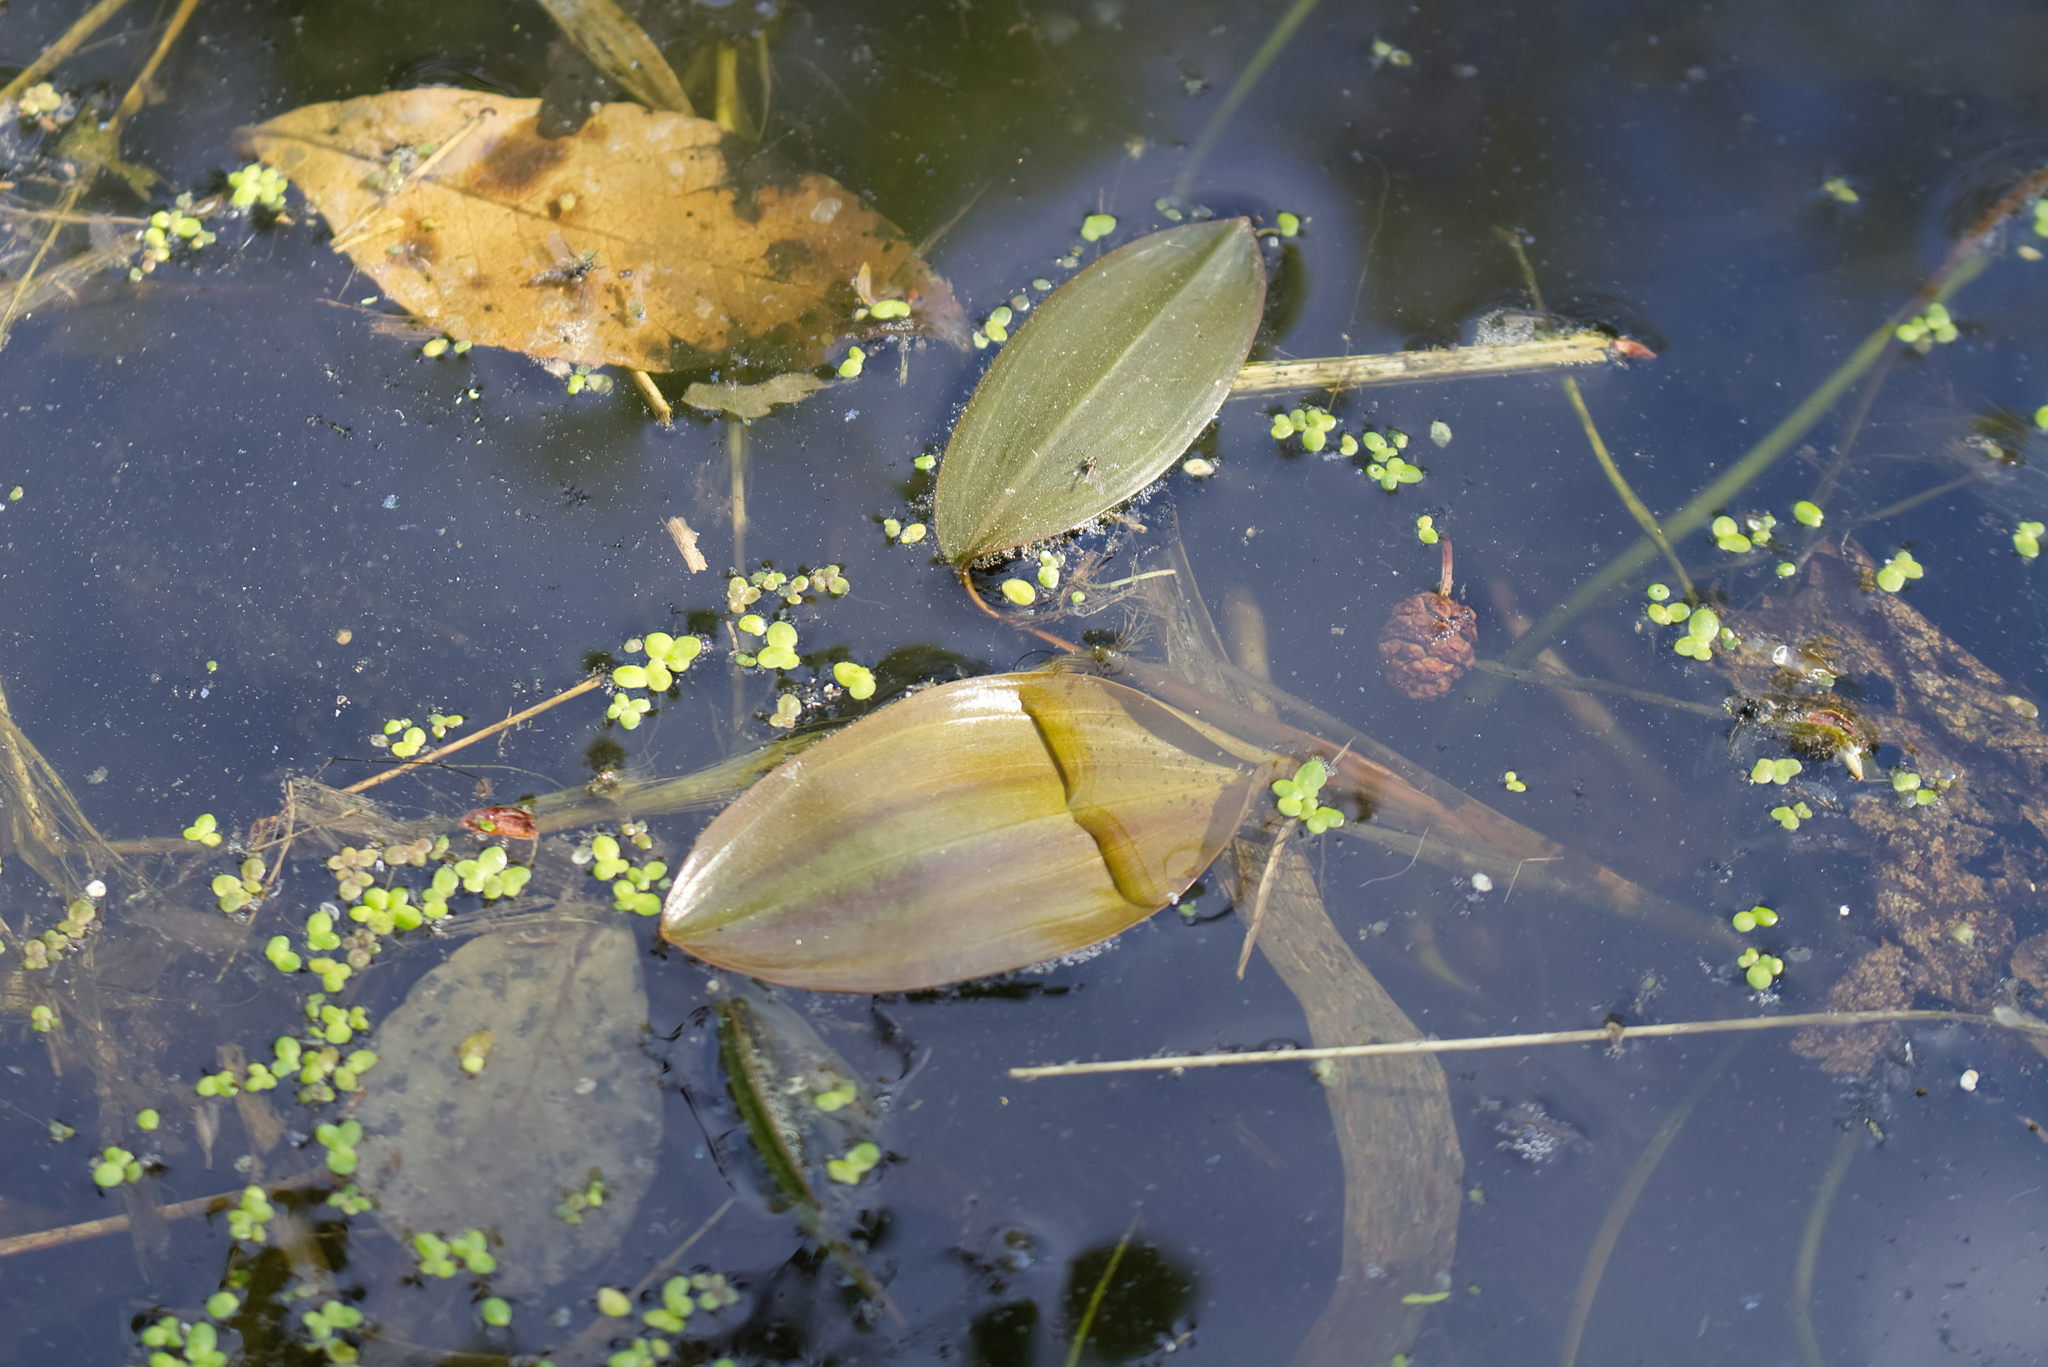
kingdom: Plantae
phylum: Tracheophyta
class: Liliopsida
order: Alismatales
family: Potamogetonaceae
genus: Potamogeton
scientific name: Potamogeton natans
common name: Broad-leaved pondweed
